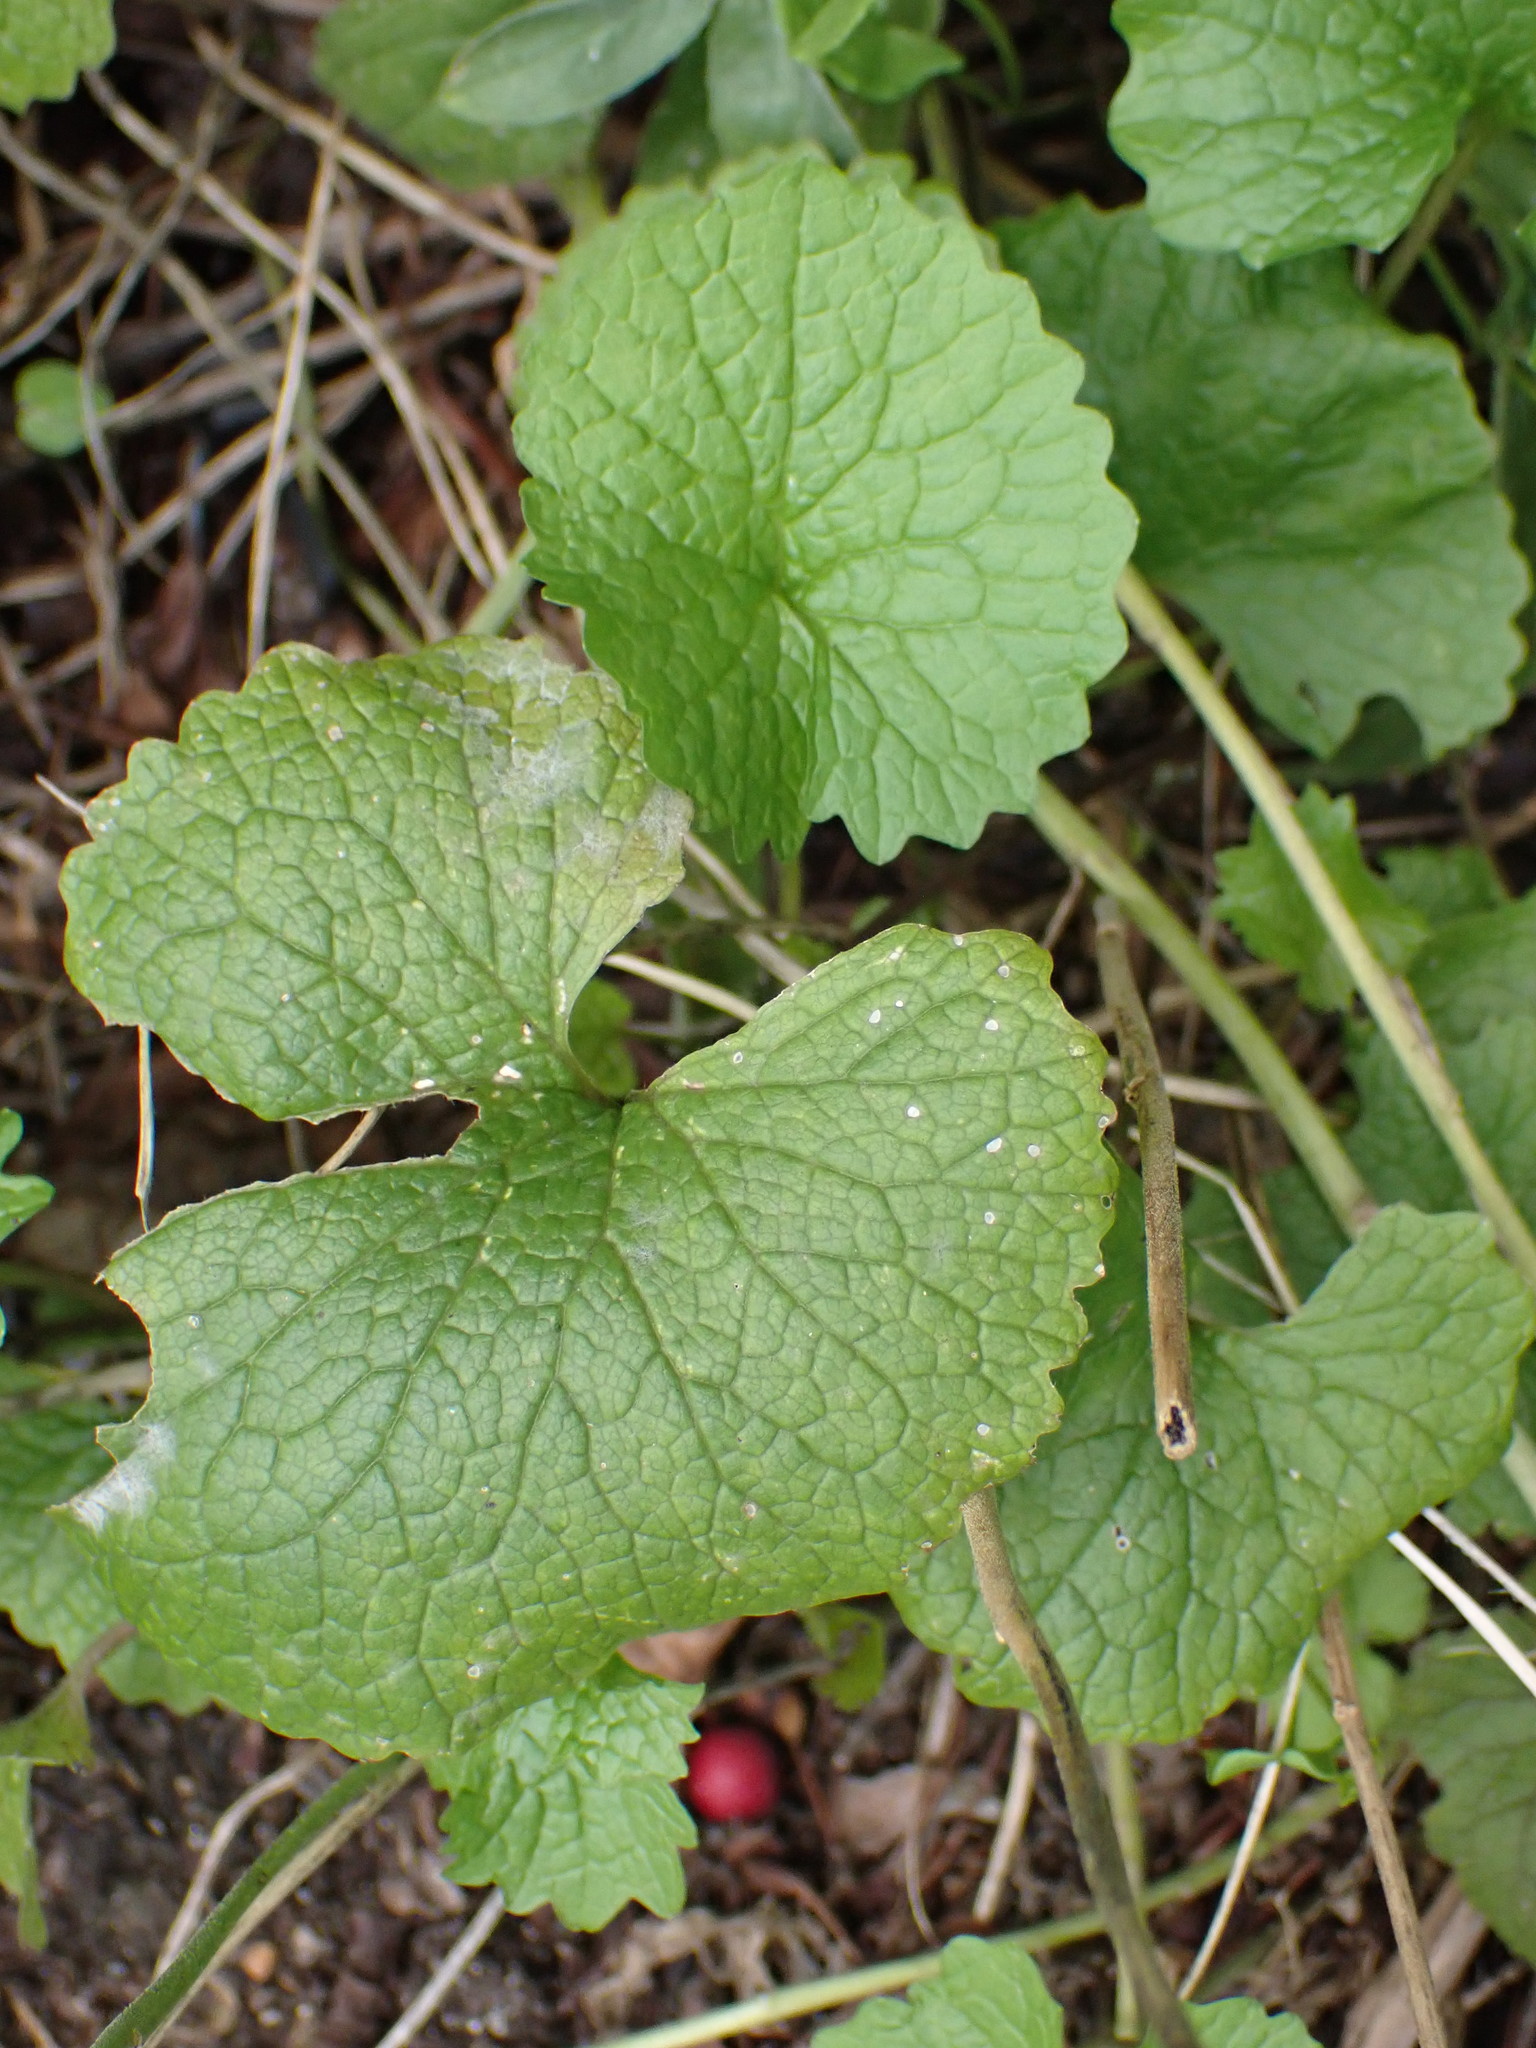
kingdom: Plantae
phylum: Tracheophyta
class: Magnoliopsida
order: Brassicales
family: Brassicaceae
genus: Alliaria
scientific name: Alliaria petiolata
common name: Garlic mustard
